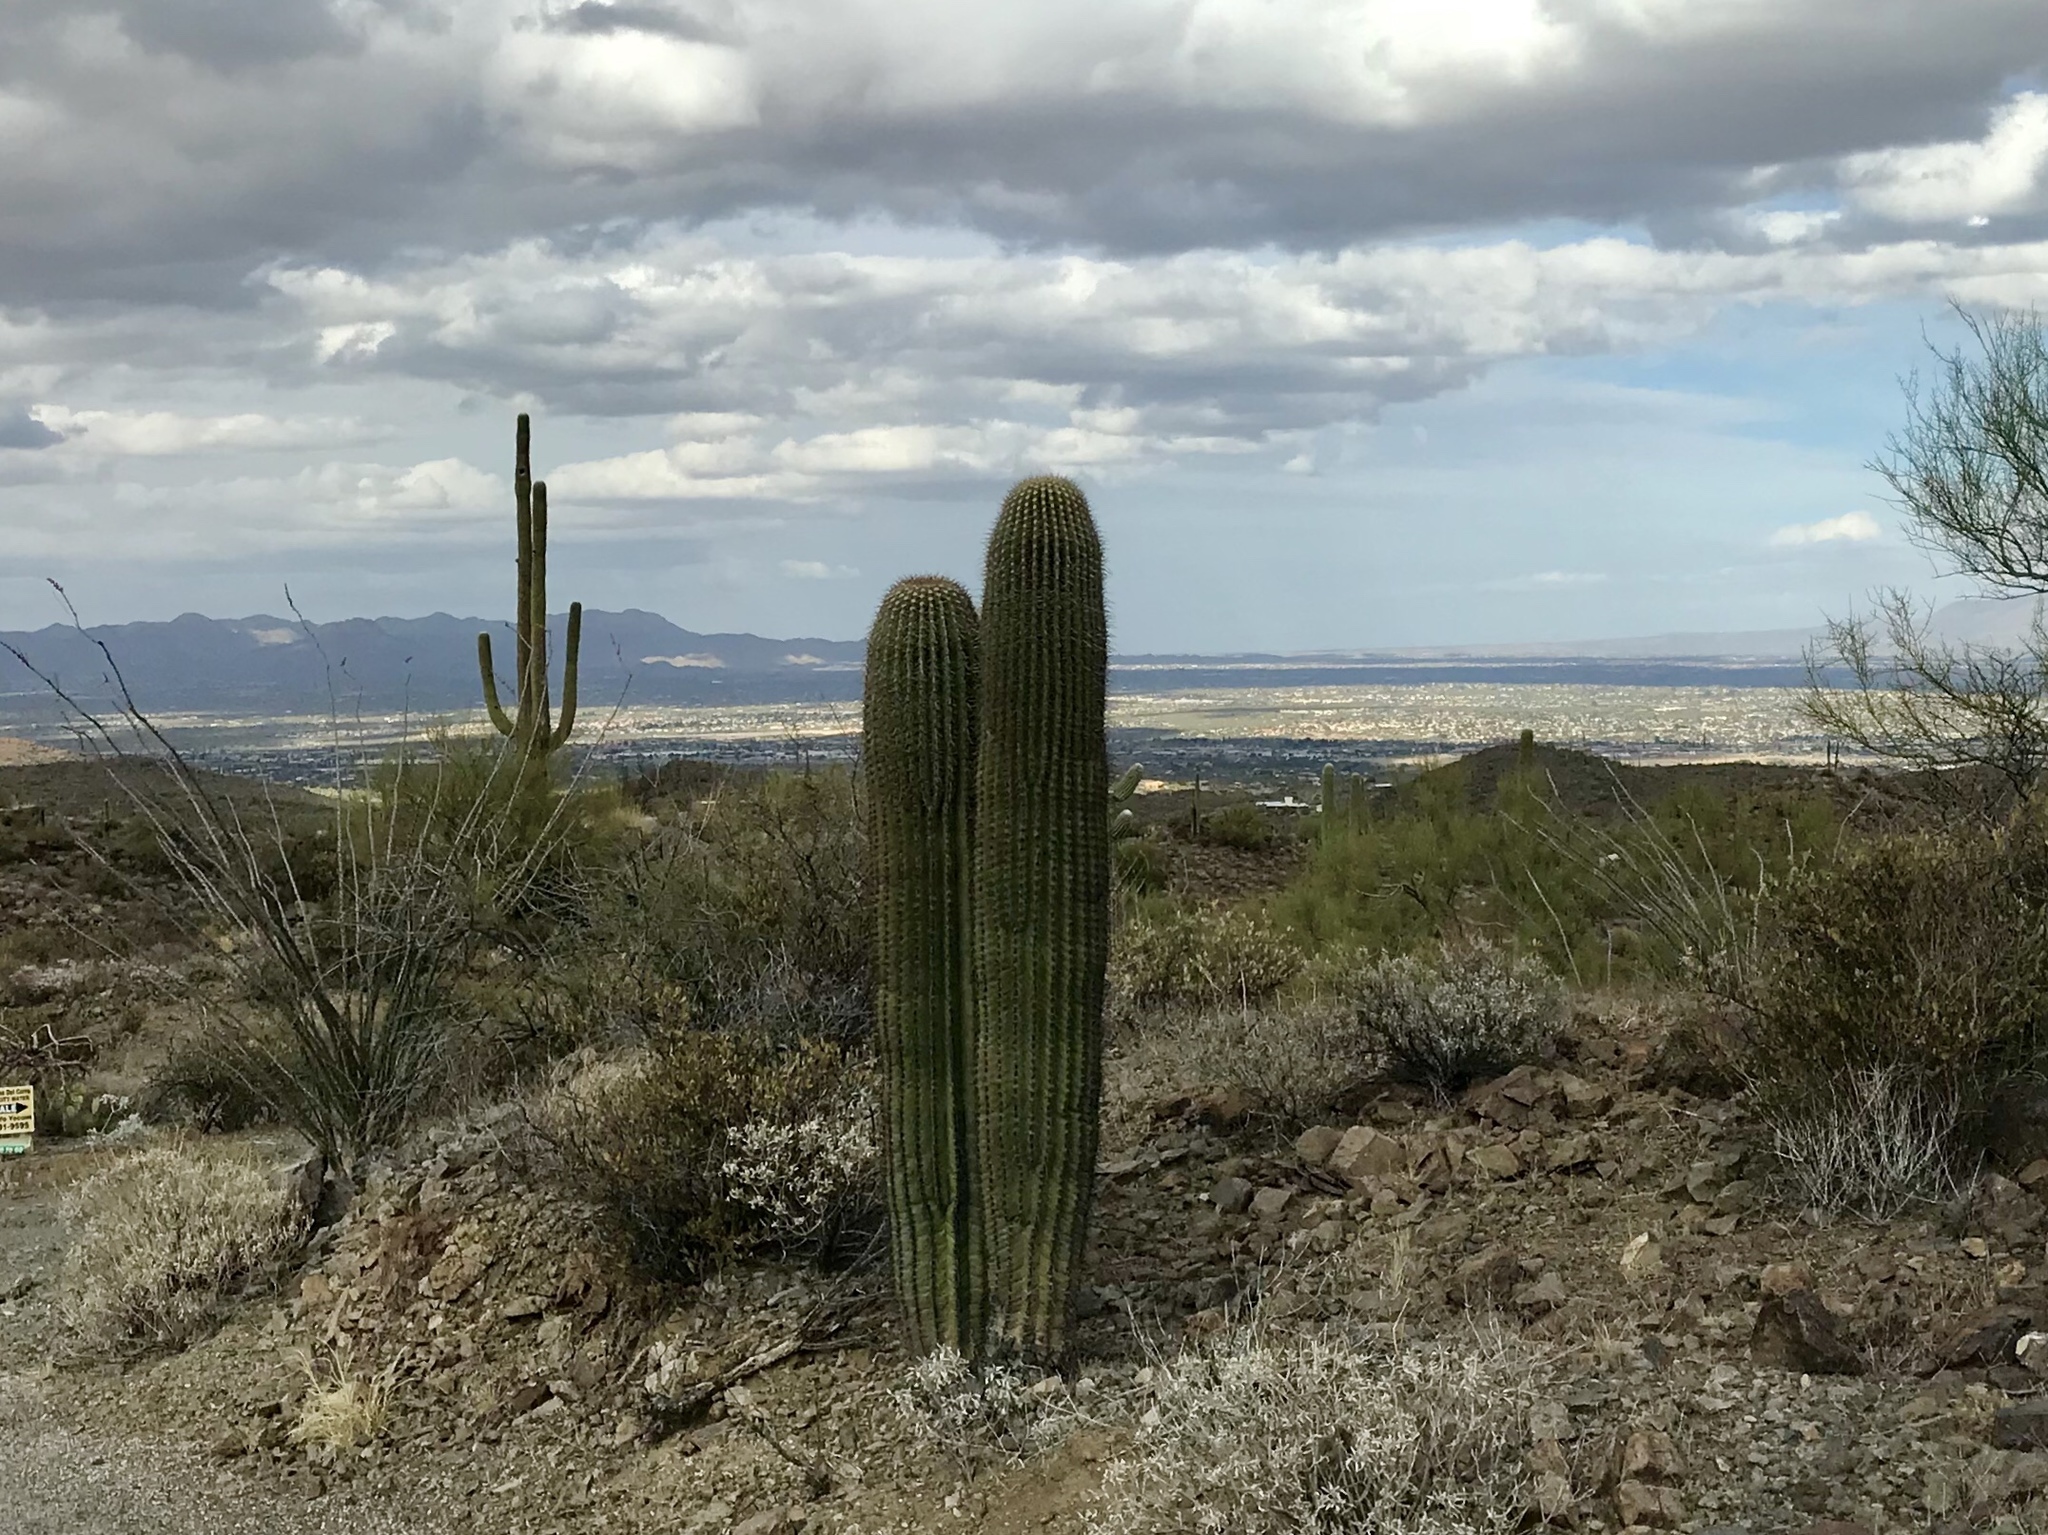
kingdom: Plantae
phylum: Tracheophyta
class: Magnoliopsida
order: Caryophyllales
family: Cactaceae
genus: Carnegiea
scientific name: Carnegiea gigantea
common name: Saguaro
